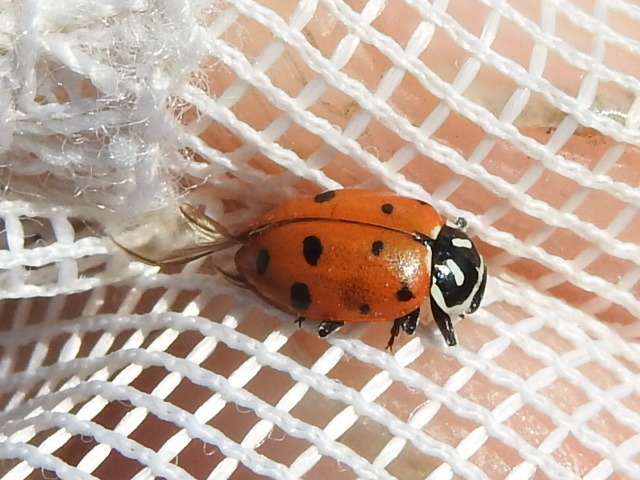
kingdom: Animalia
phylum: Arthropoda
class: Insecta
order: Coleoptera
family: Coccinellidae
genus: Hippodamia
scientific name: Hippodamia convergens
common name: Convergent lady beetle
